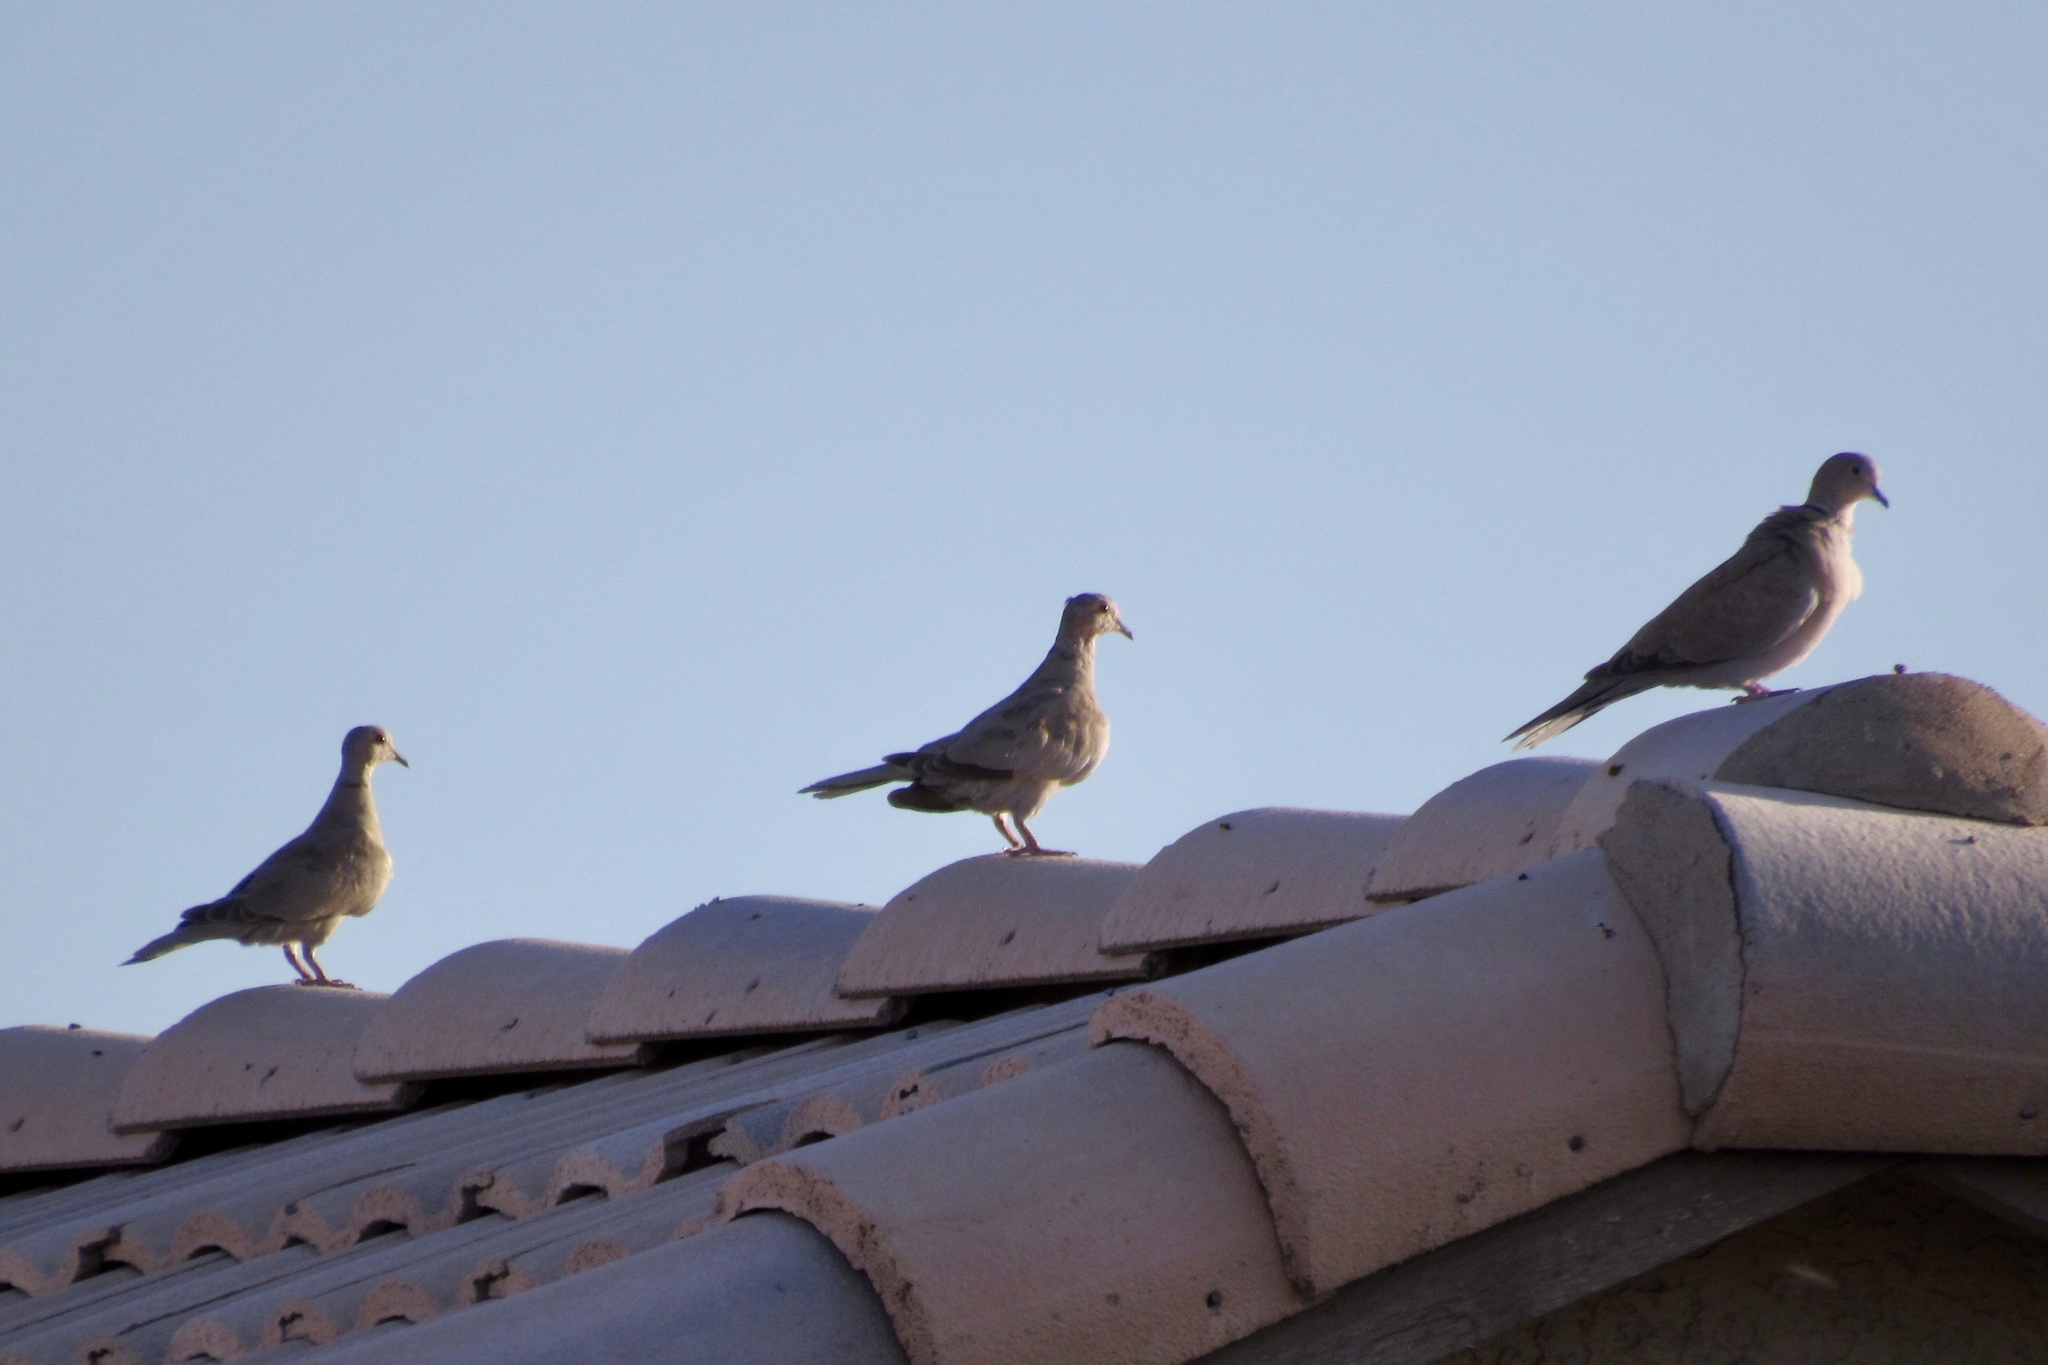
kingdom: Animalia
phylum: Chordata
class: Aves
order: Columbiformes
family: Columbidae
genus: Zenaida
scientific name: Zenaida macroura
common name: Mourning dove
